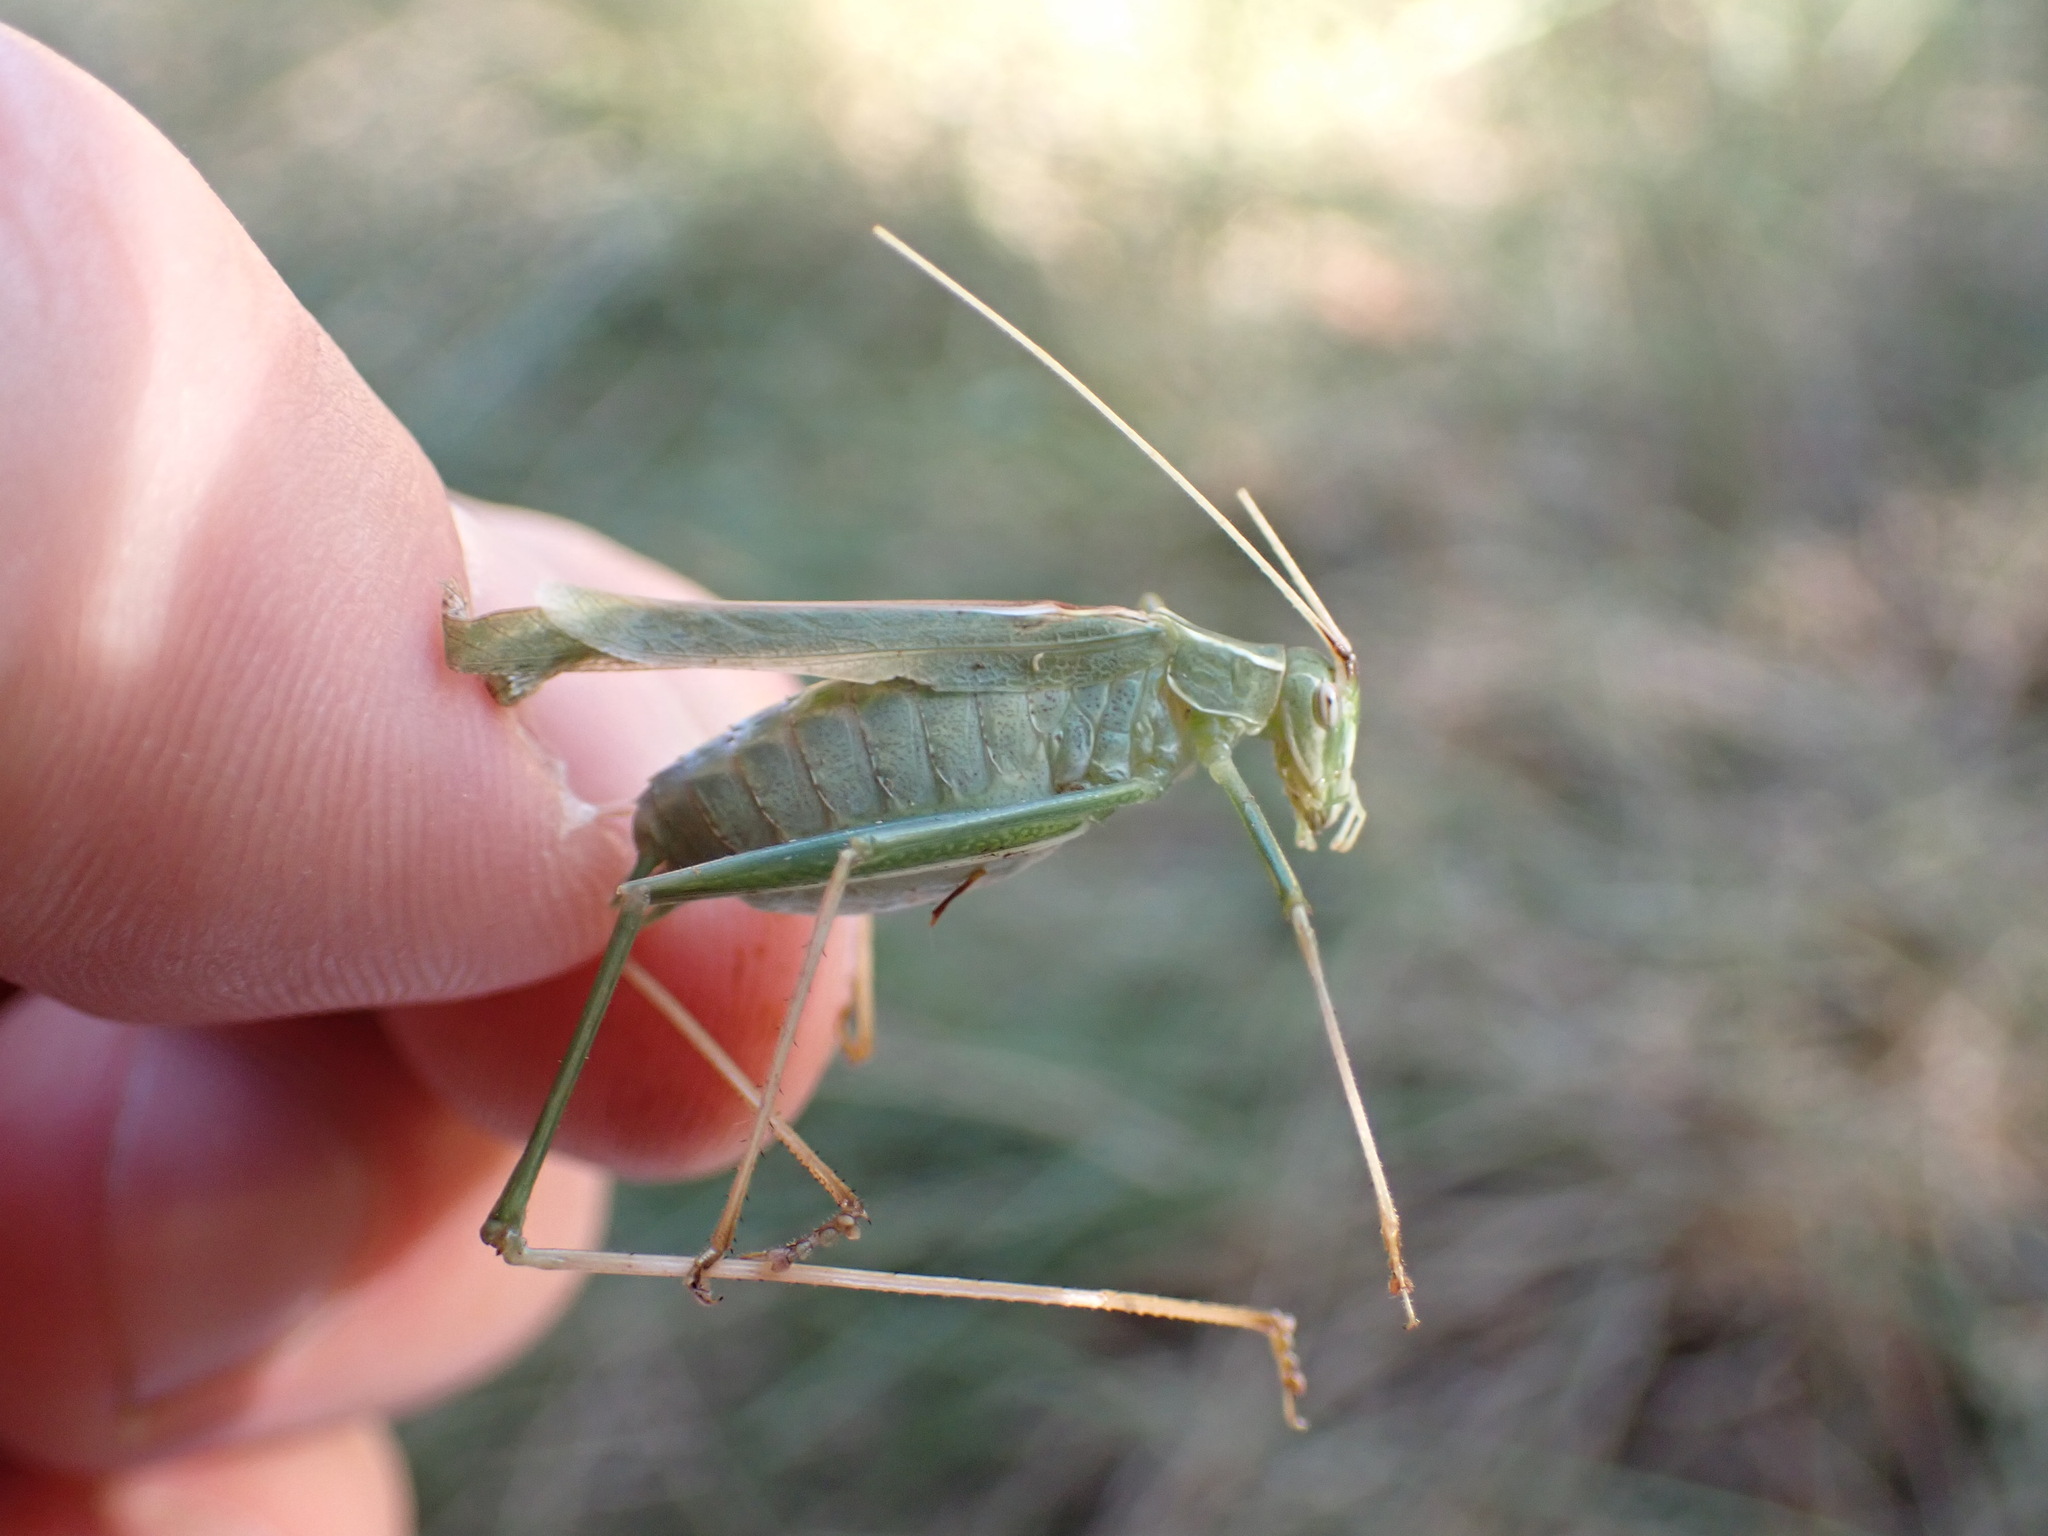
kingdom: Animalia
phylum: Arthropoda
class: Insecta
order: Orthoptera
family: Tettigoniidae
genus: Tylopsis
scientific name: Tylopsis lilifolia
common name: Lily bush-cricket
